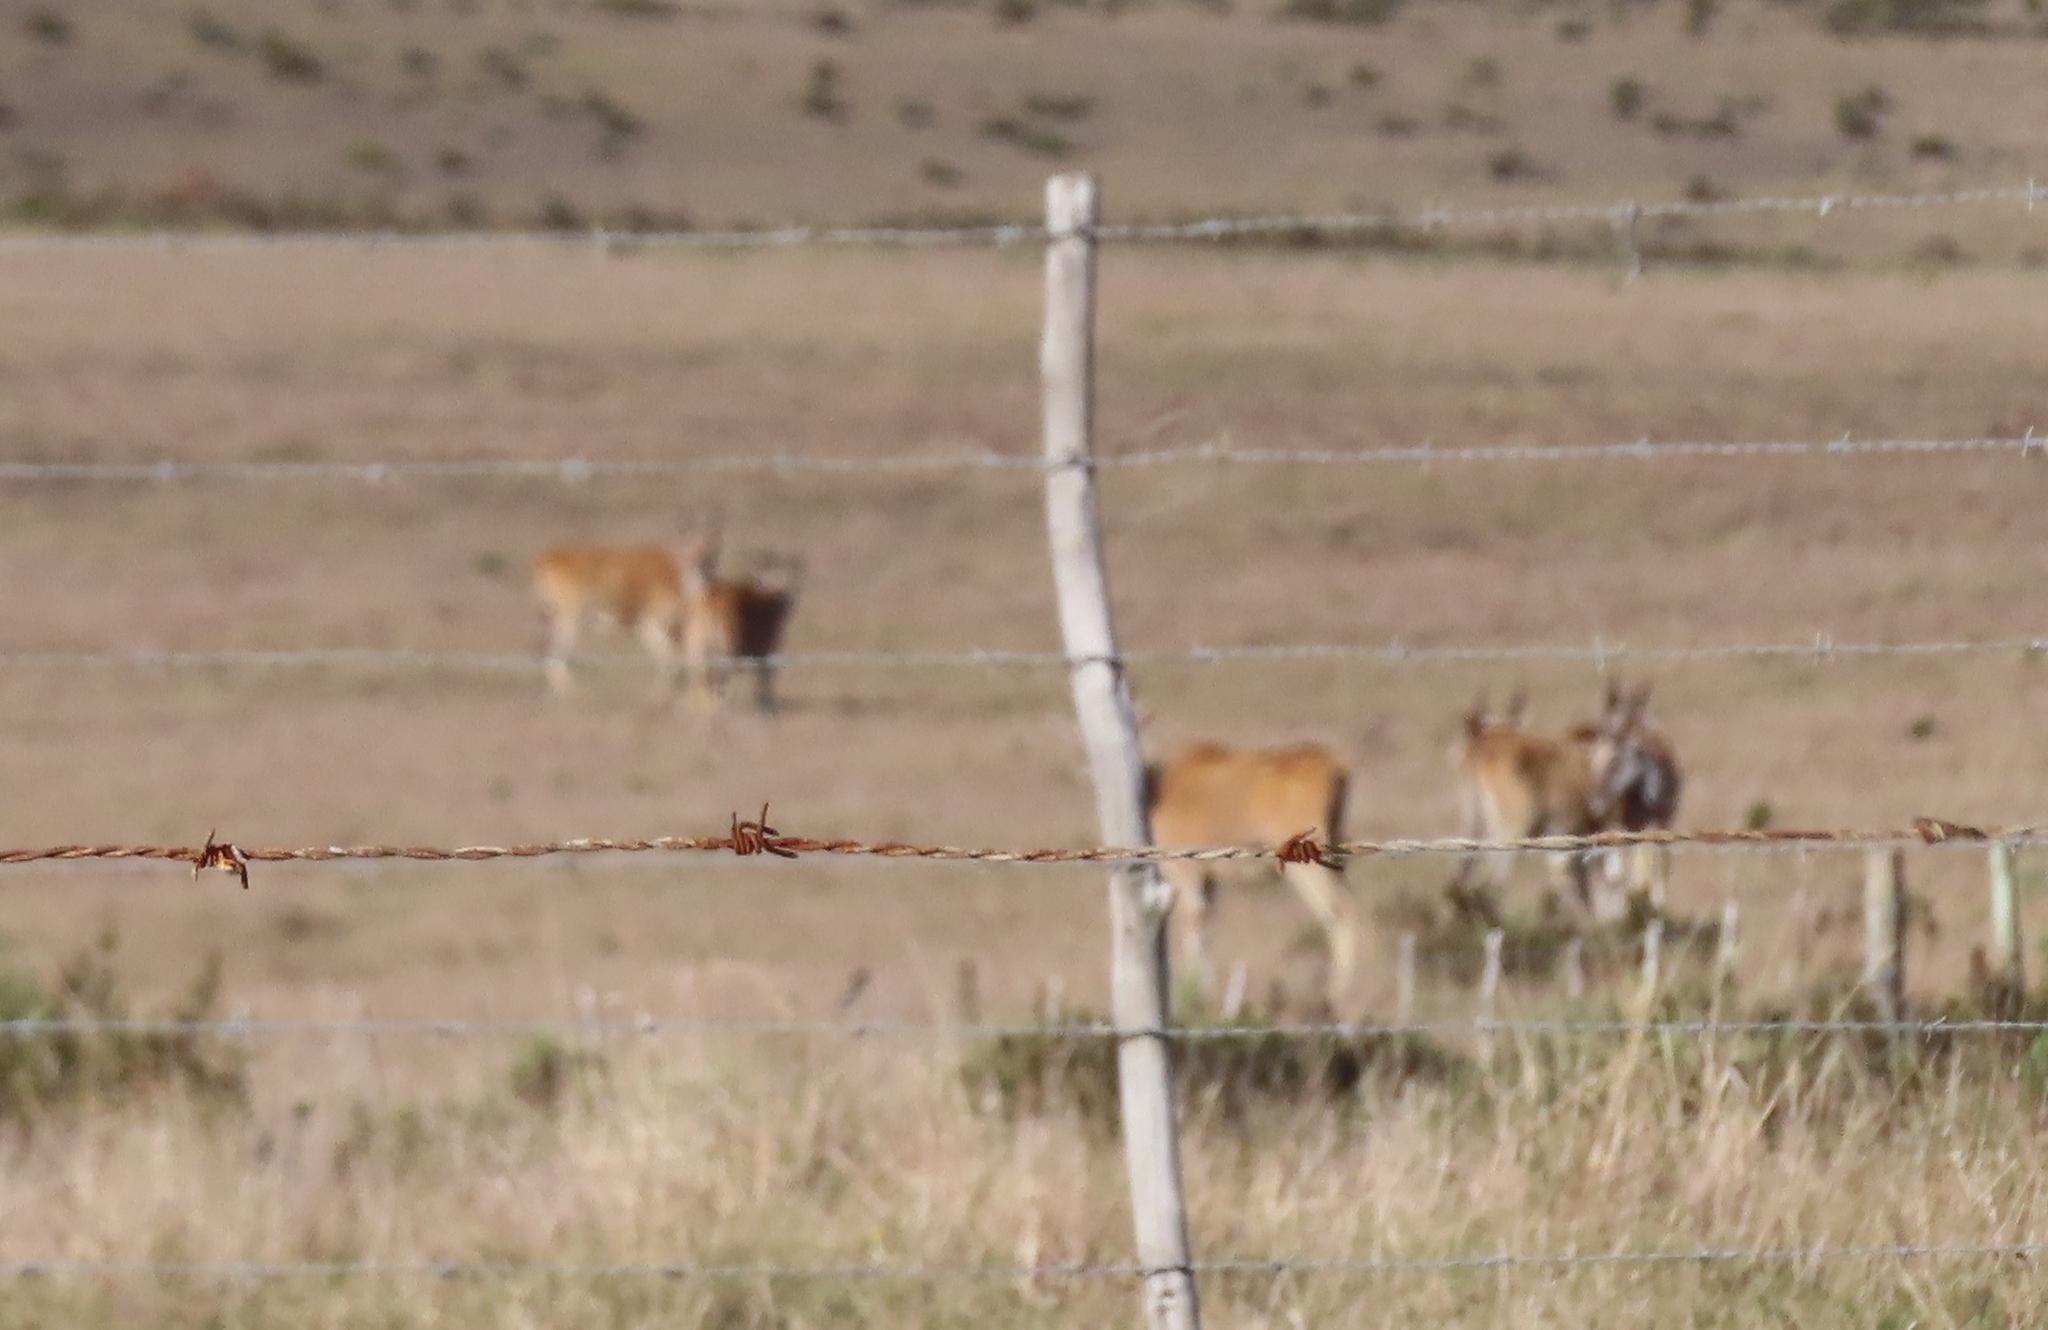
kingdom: Animalia
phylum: Chordata
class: Mammalia
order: Artiodactyla
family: Bovidae
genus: Taurotragus
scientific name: Taurotragus oryx
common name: Common eland
